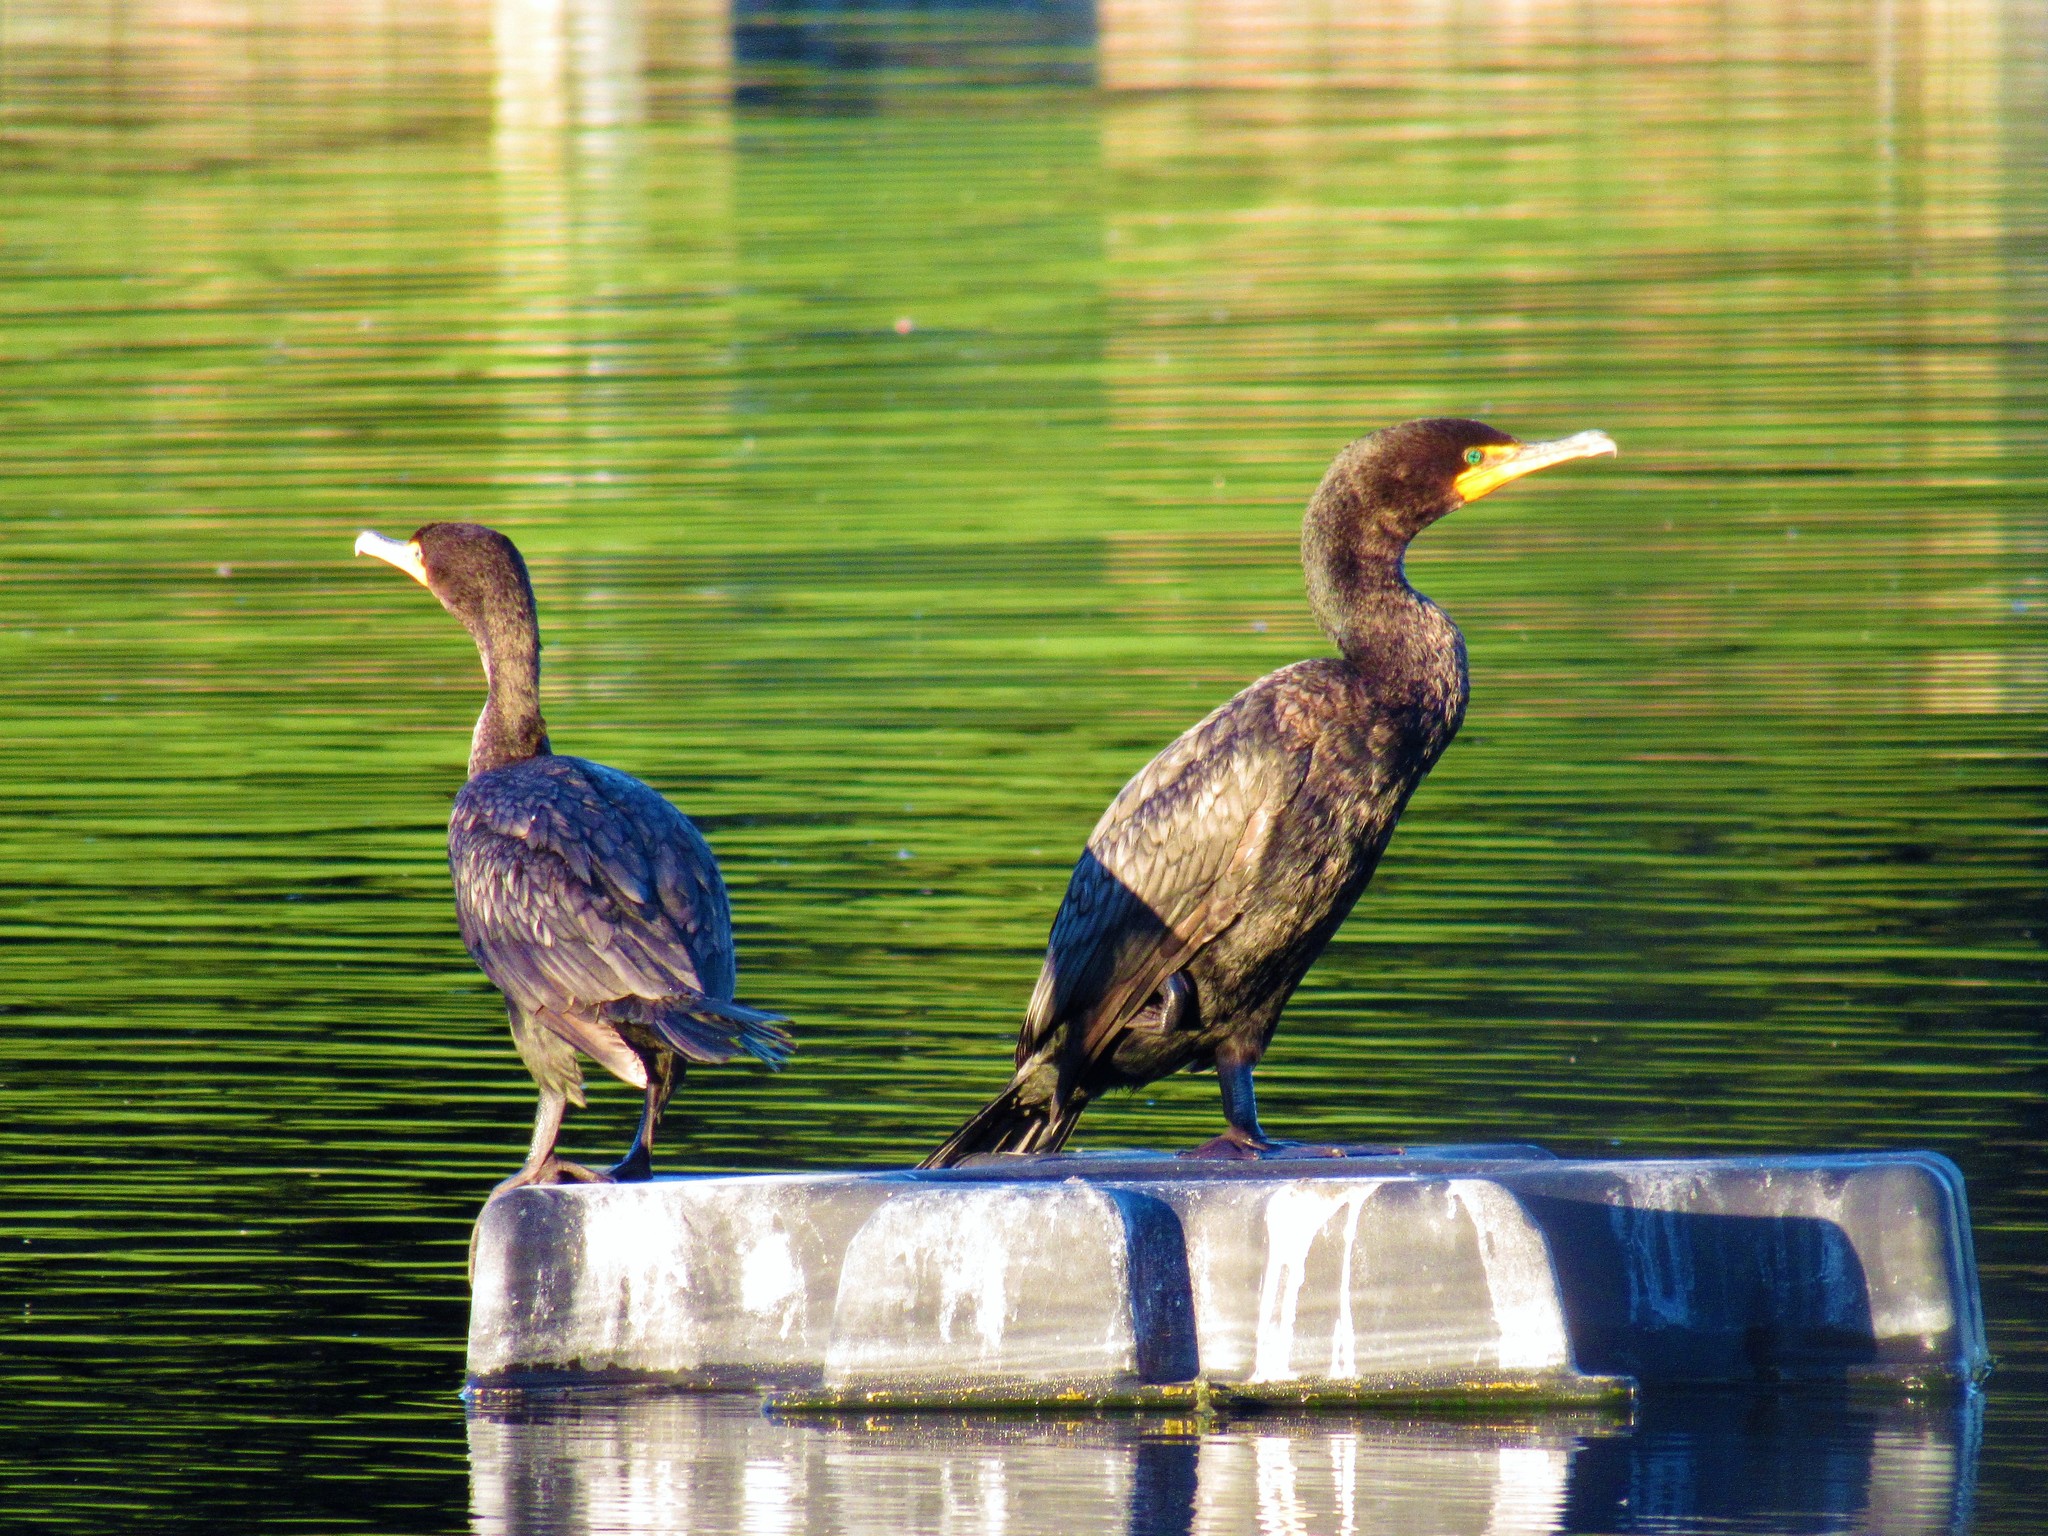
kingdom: Animalia
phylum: Chordata
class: Aves
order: Suliformes
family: Phalacrocoracidae
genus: Phalacrocorax
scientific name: Phalacrocorax auritus
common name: Double-crested cormorant
